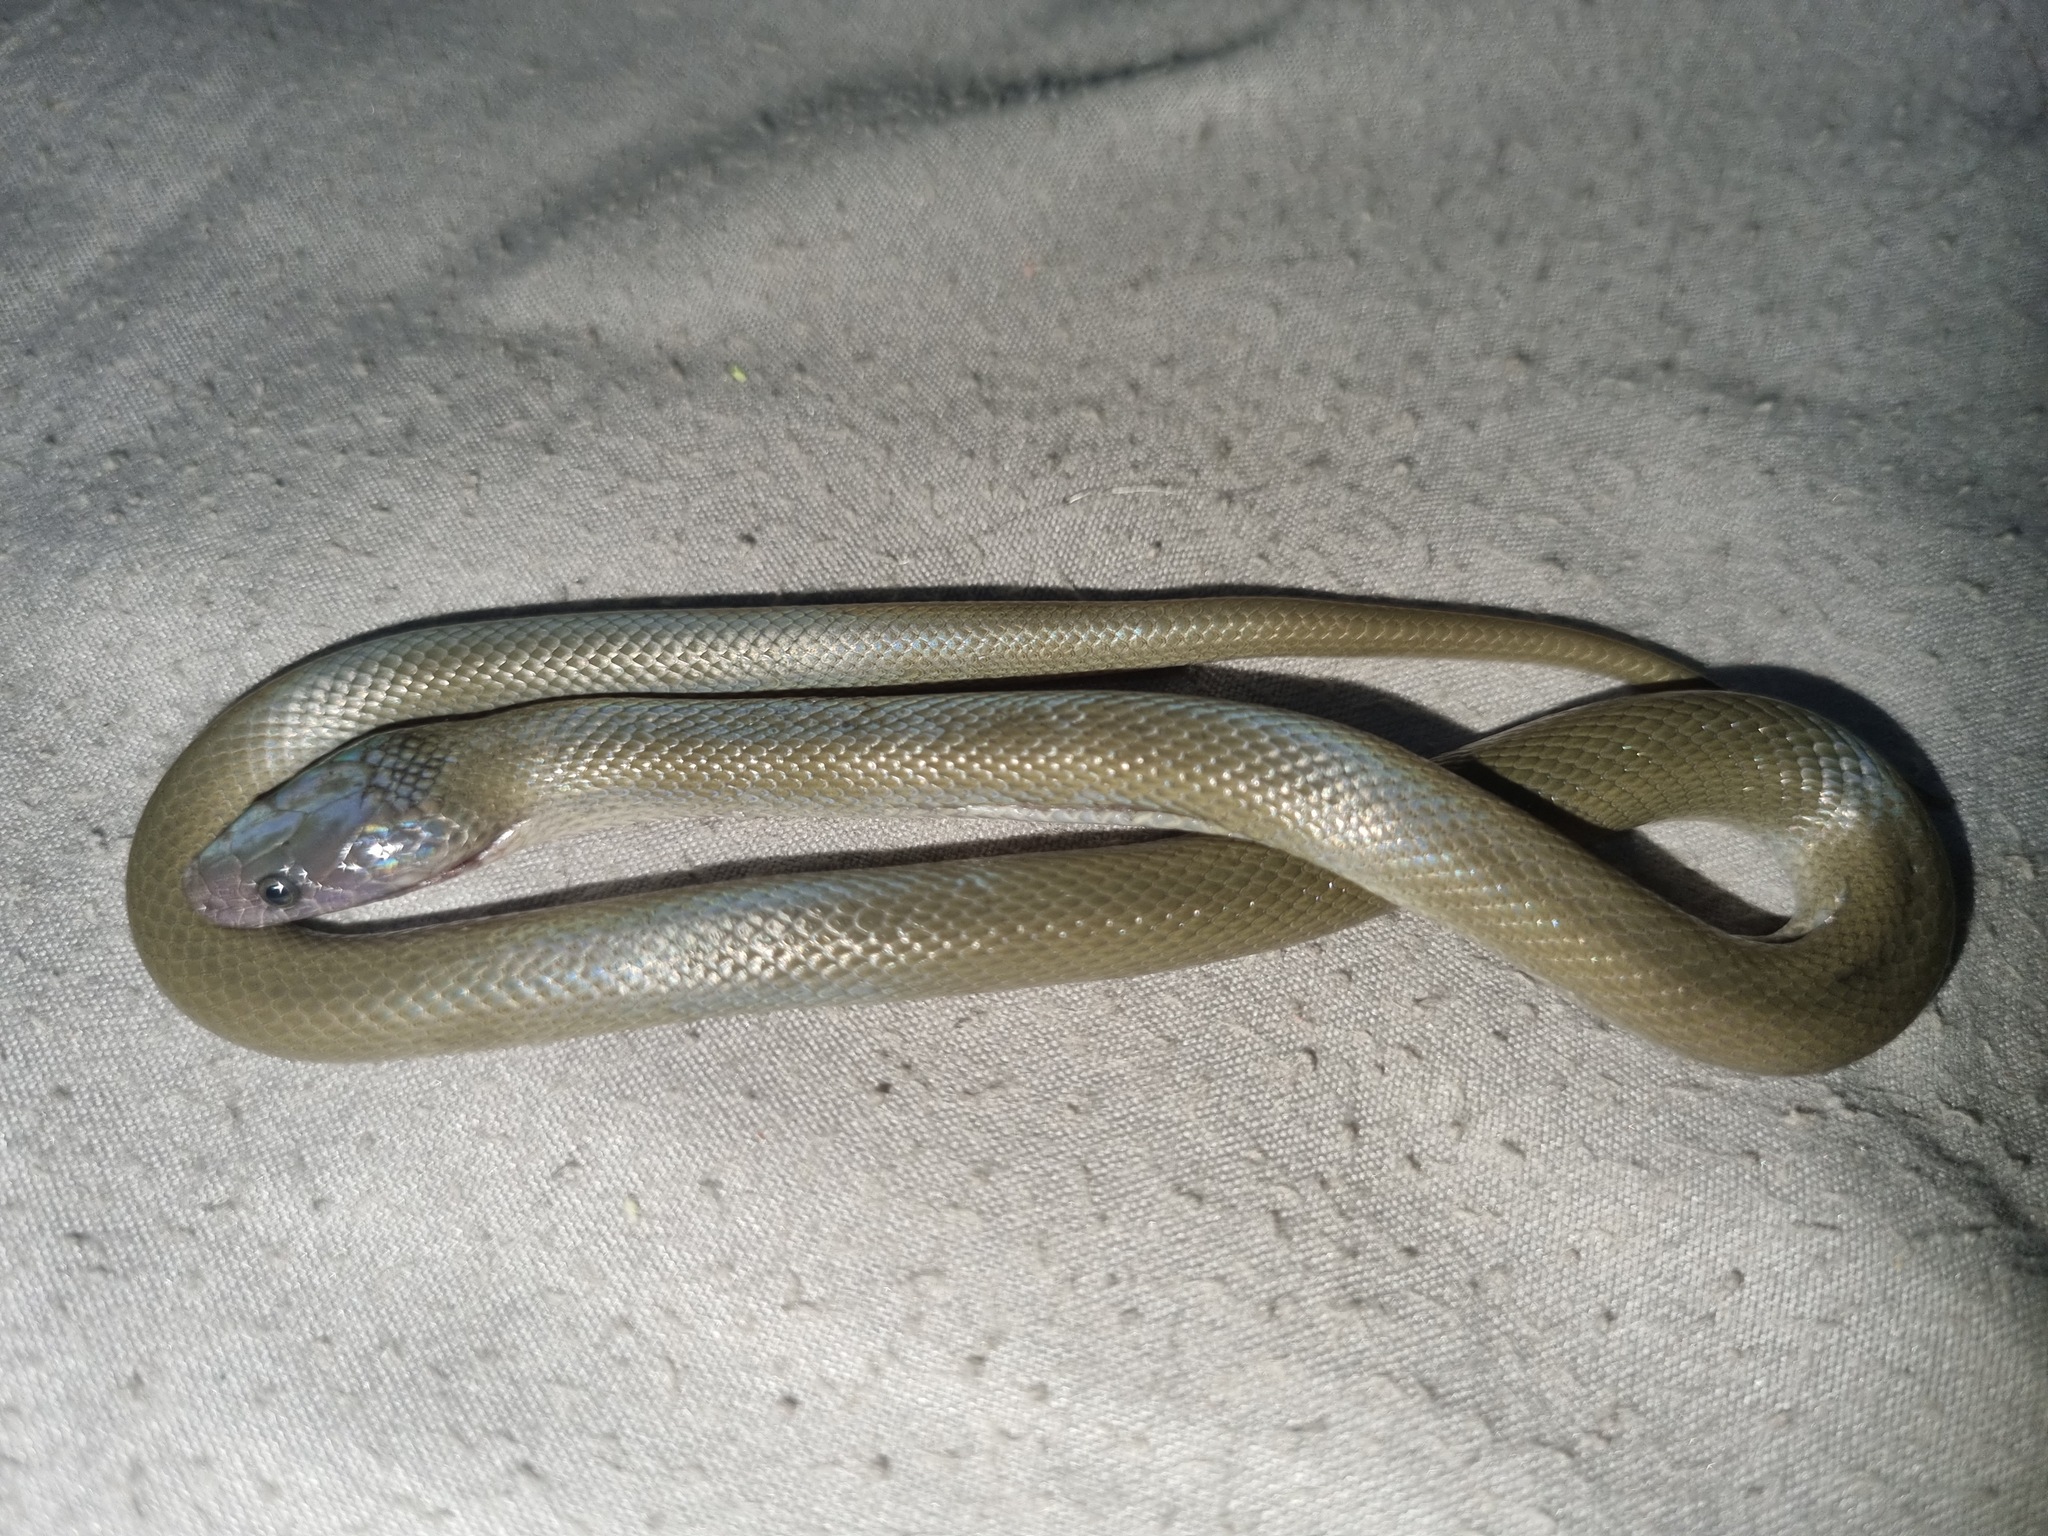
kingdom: Animalia
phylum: Chordata
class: Squamata
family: Lamprophiidae
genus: Lycodonomorphus
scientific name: Lycodonomorphus inornatus
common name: Black house snake
